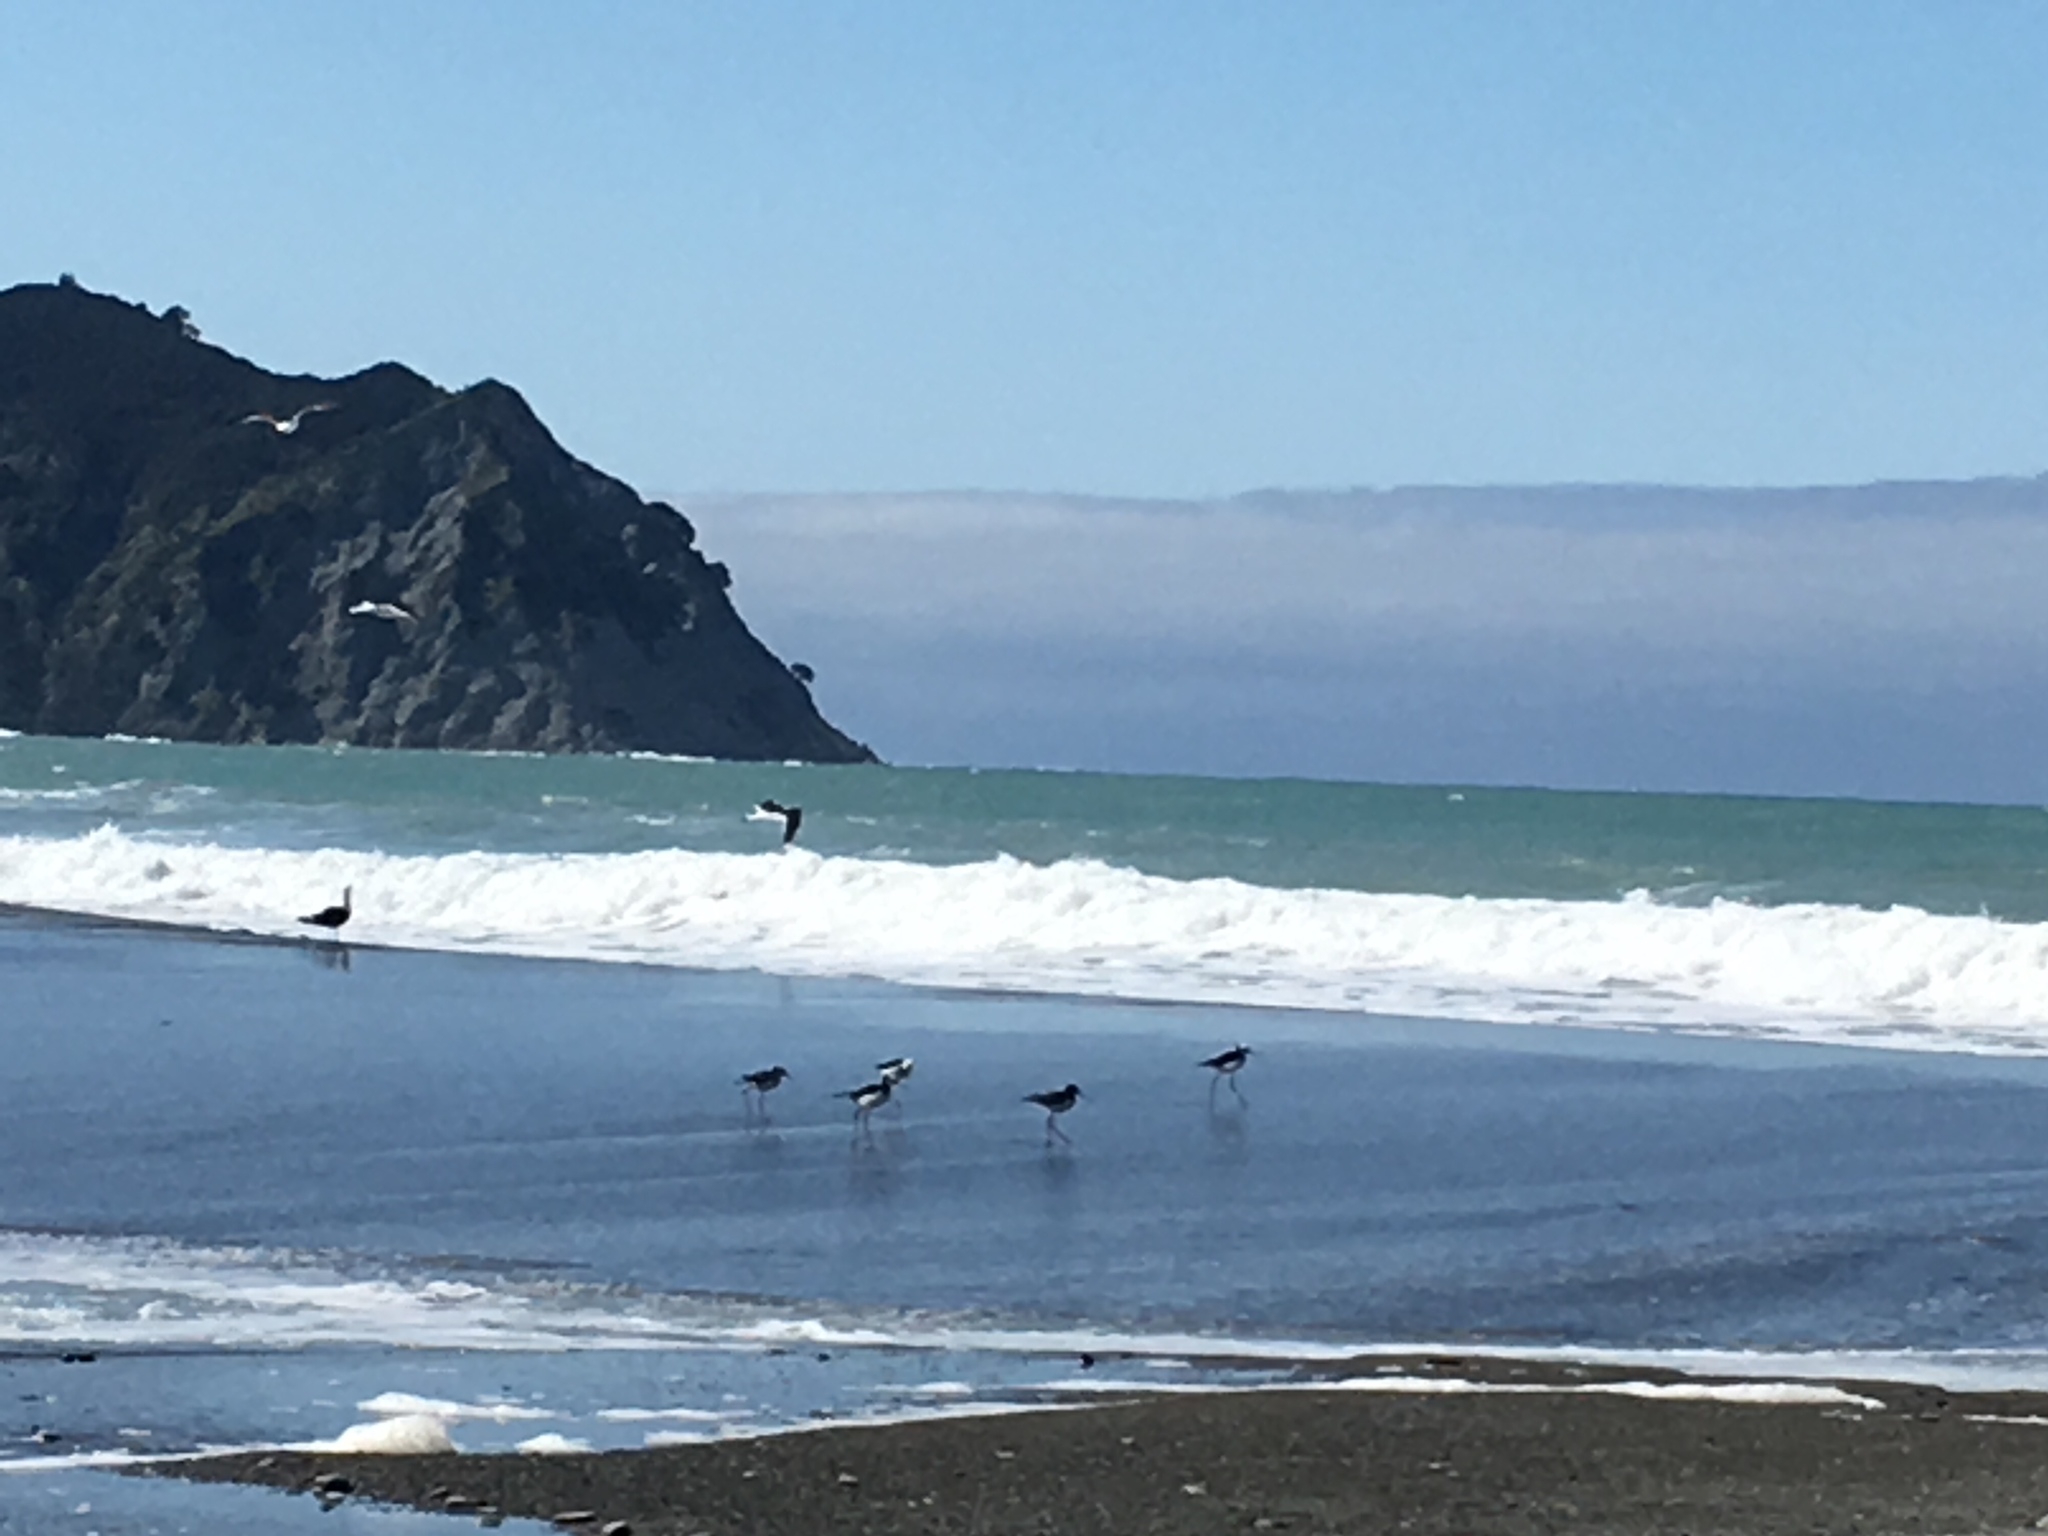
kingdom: Animalia
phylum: Chordata
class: Aves
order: Charadriiformes
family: Recurvirostridae
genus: Himantopus
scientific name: Himantopus leucocephalus
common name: White-headed stilt
